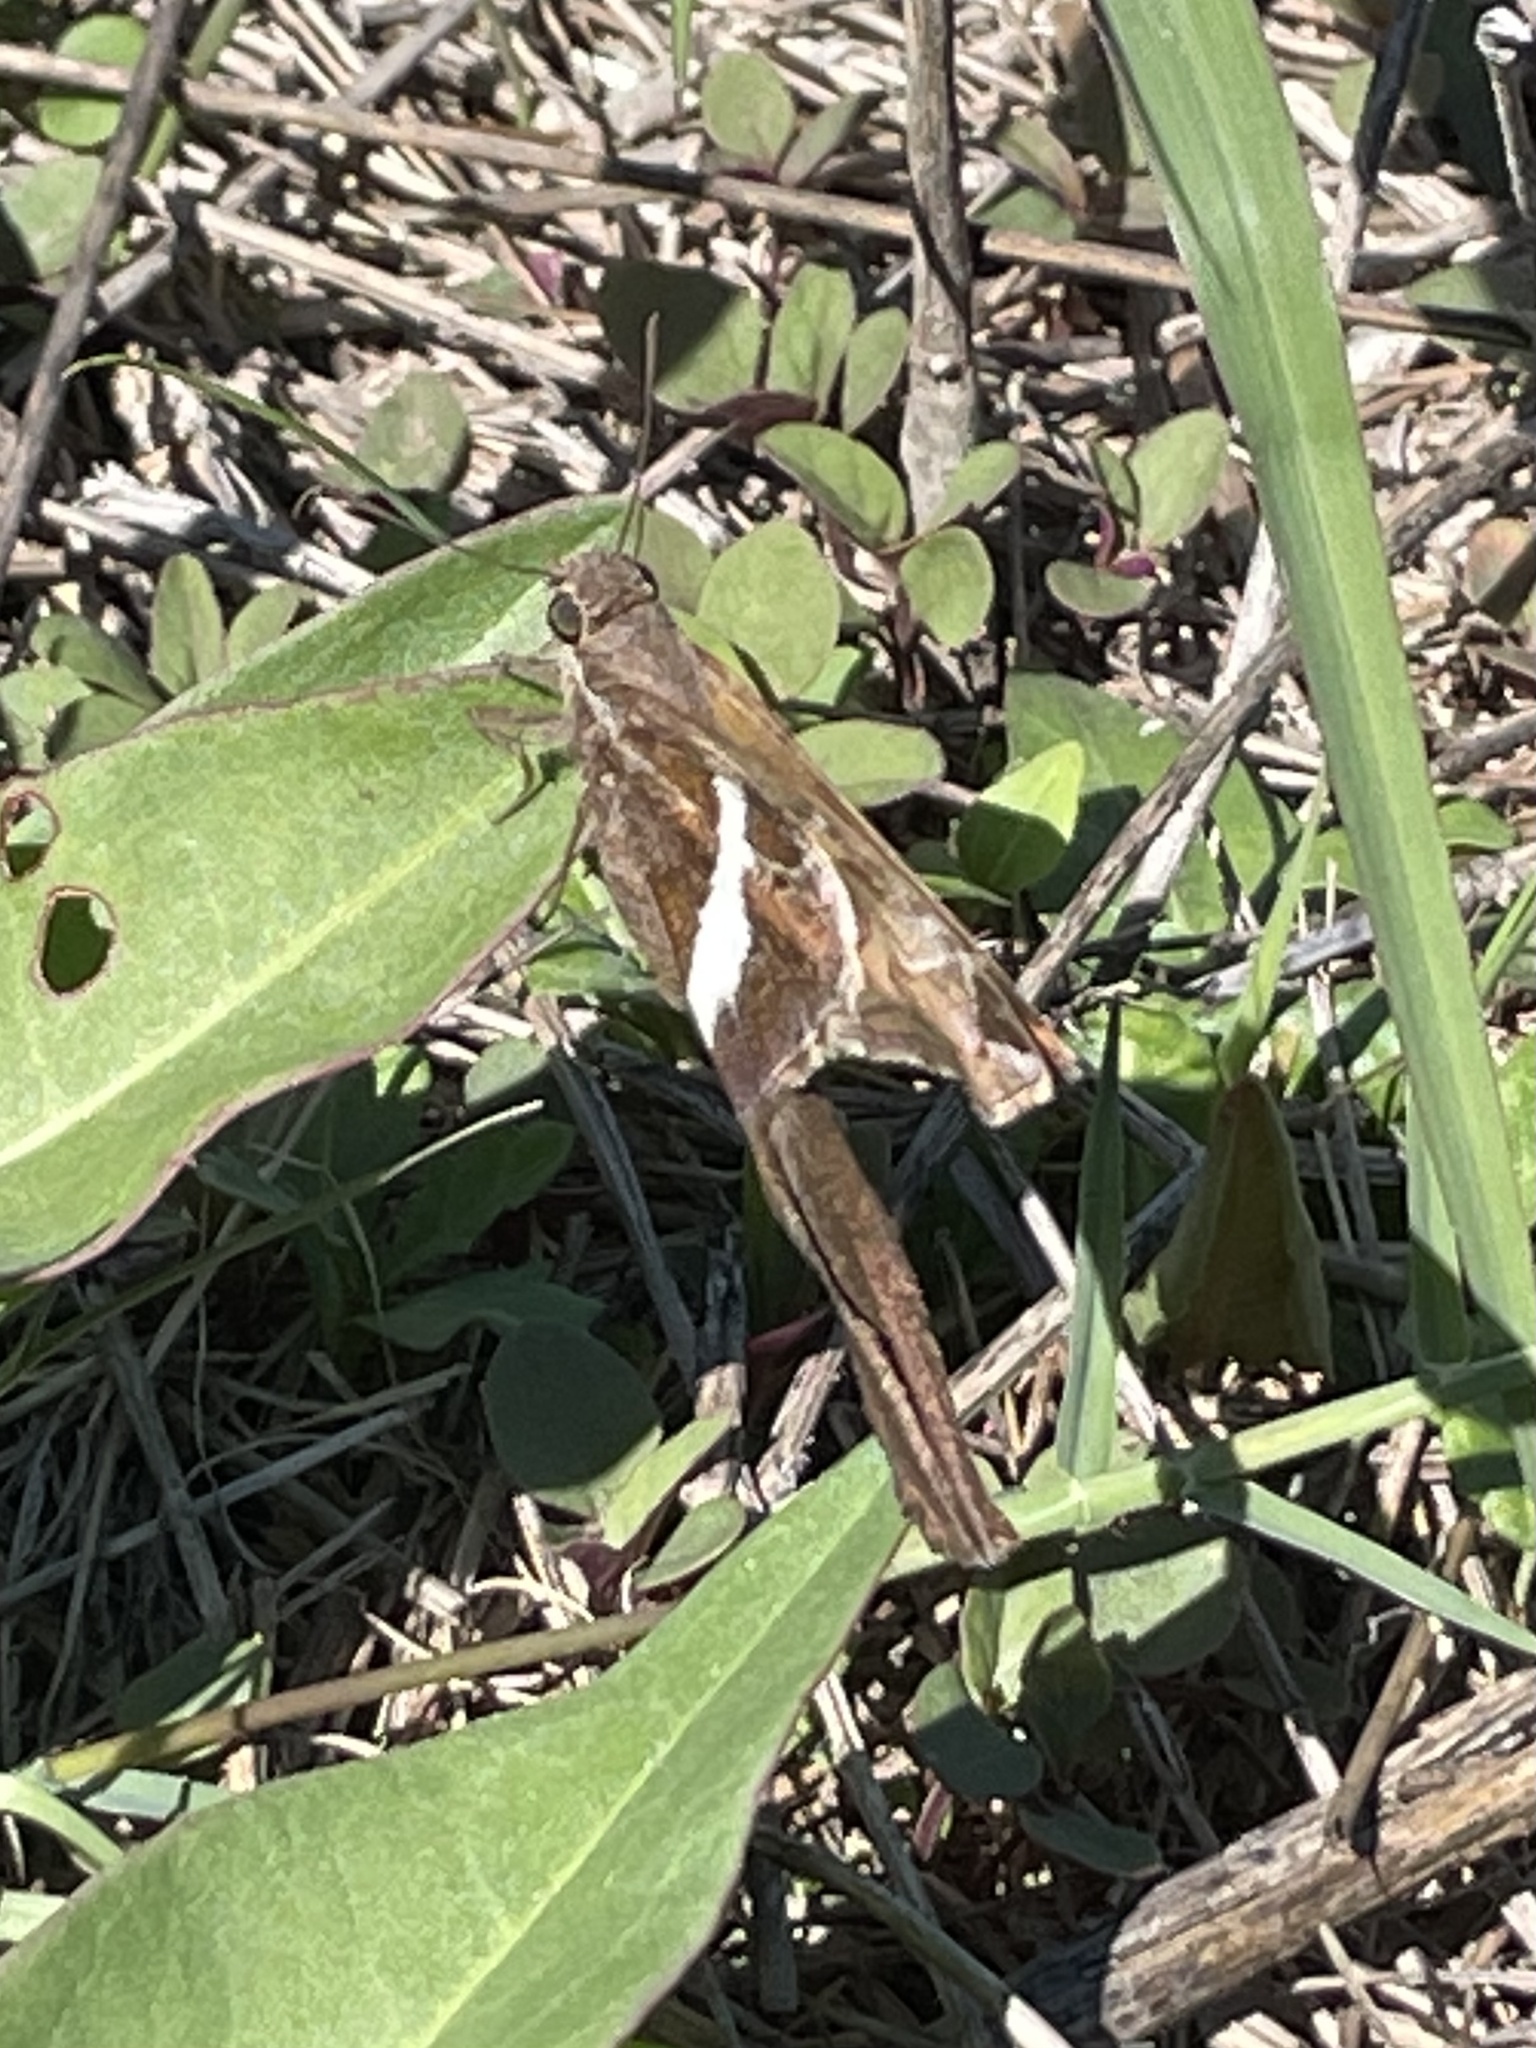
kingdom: Animalia
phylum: Arthropoda
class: Insecta
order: Lepidoptera
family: Hesperiidae
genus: Chioides
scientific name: Chioides catillus
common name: Silverbanded skipper
